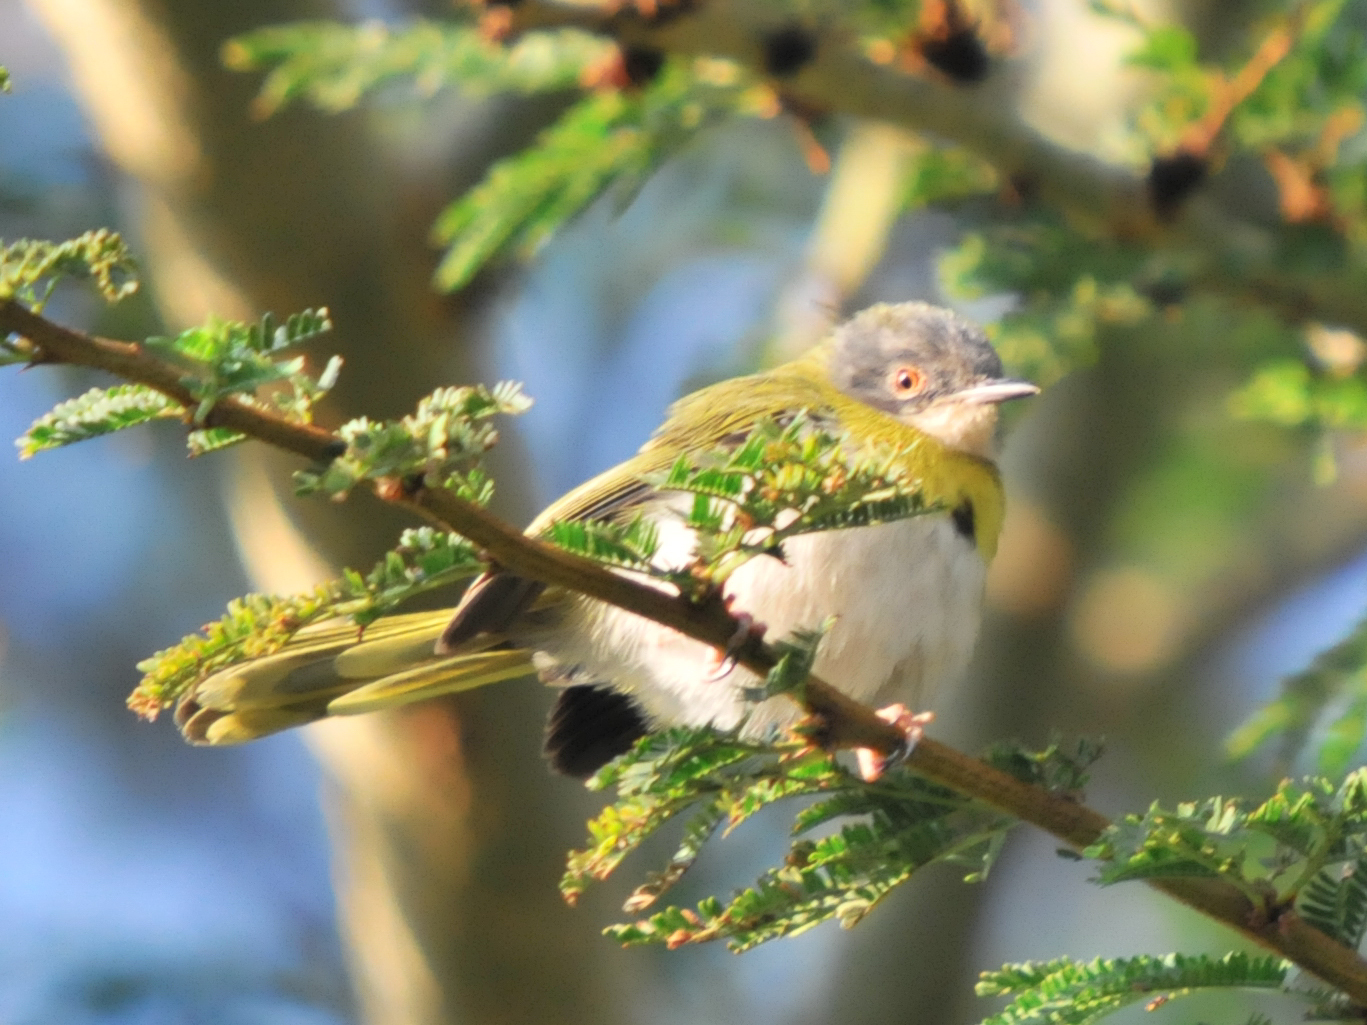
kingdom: Animalia
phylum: Chordata
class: Aves
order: Passeriformes
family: Cisticolidae
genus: Apalis
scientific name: Apalis flavida
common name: Yellow-breasted apalis
